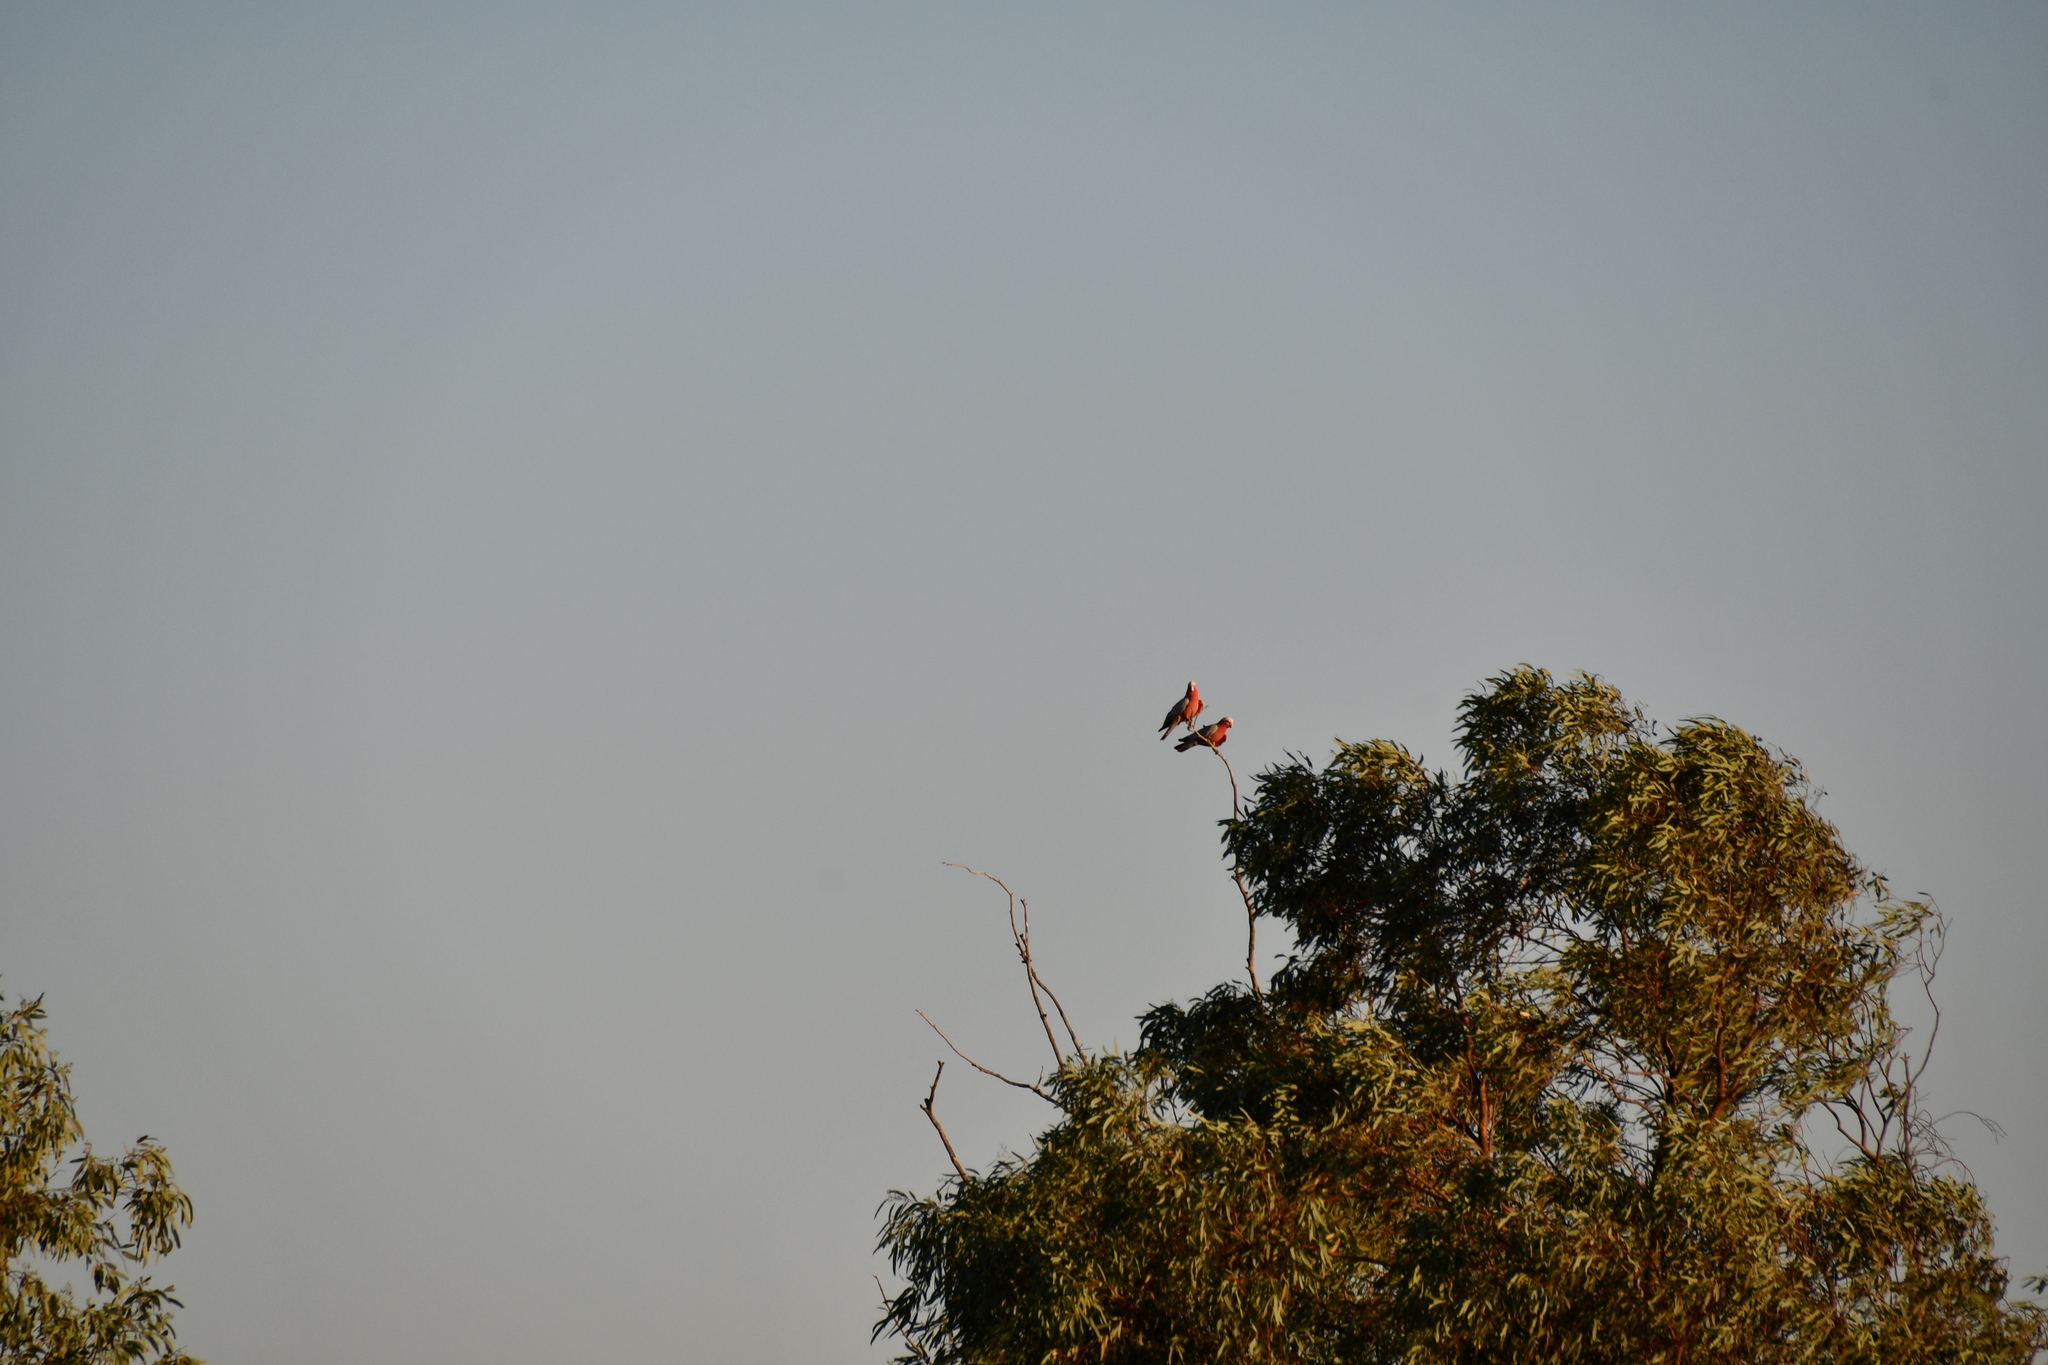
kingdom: Animalia
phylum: Chordata
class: Aves
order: Psittaciformes
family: Psittacidae
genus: Eolophus
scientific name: Eolophus roseicapilla
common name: Galah
